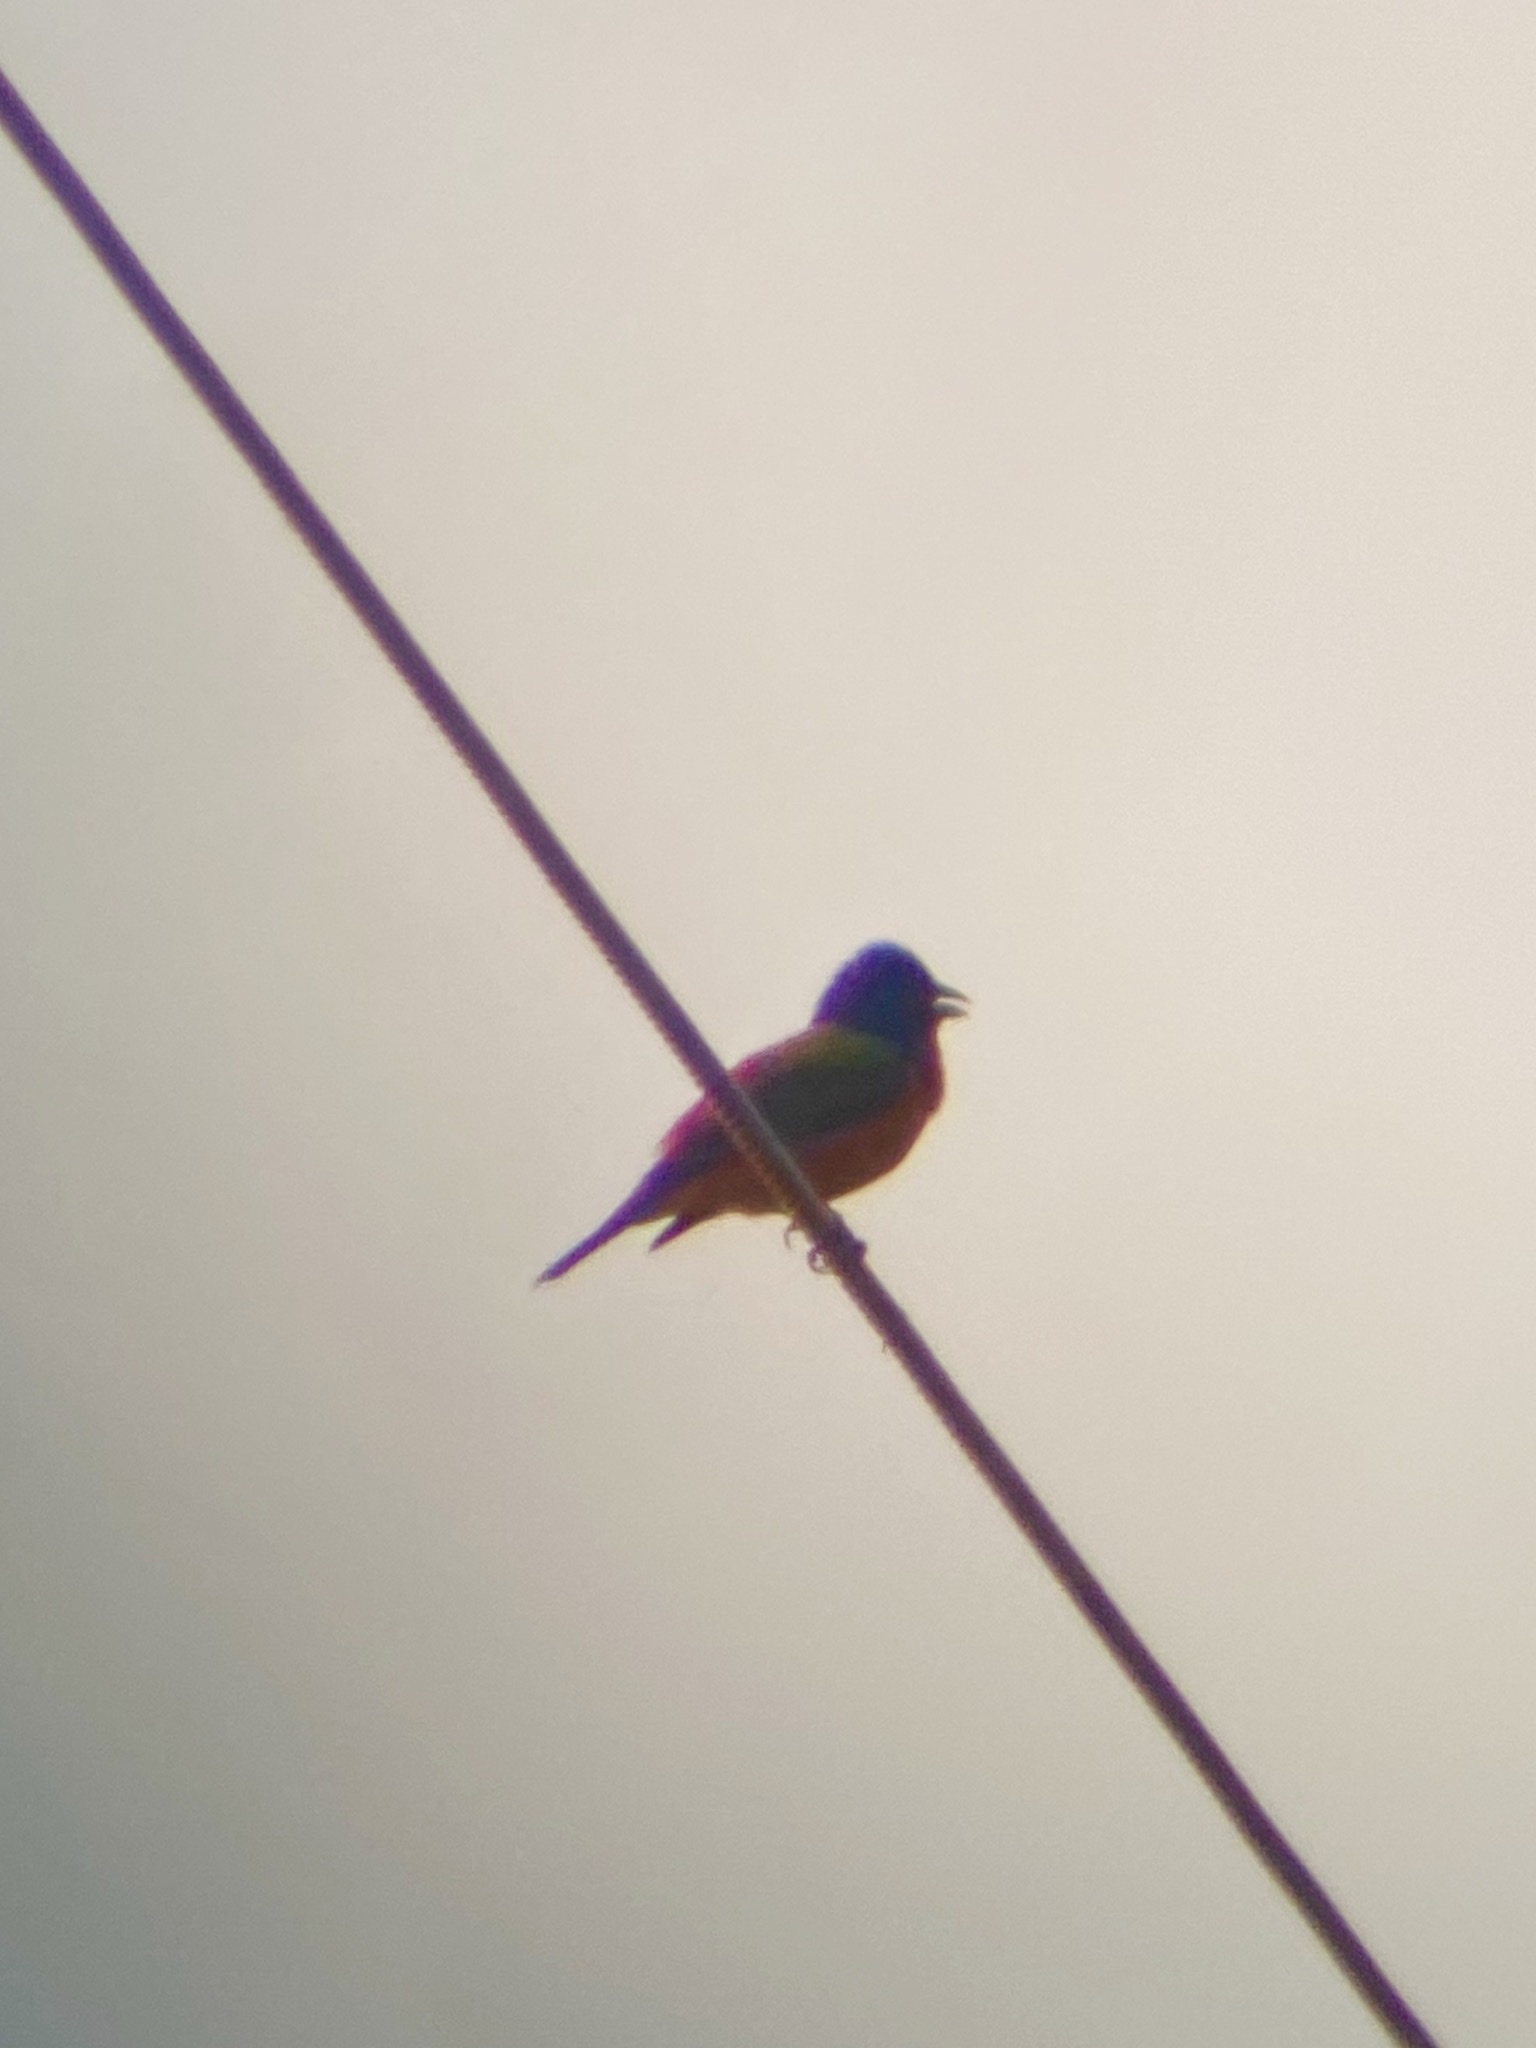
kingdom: Animalia
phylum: Chordata
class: Aves
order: Passeriformes
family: Cardinalidae
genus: Passerina
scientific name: Passerina ciris
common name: Painted bunting
